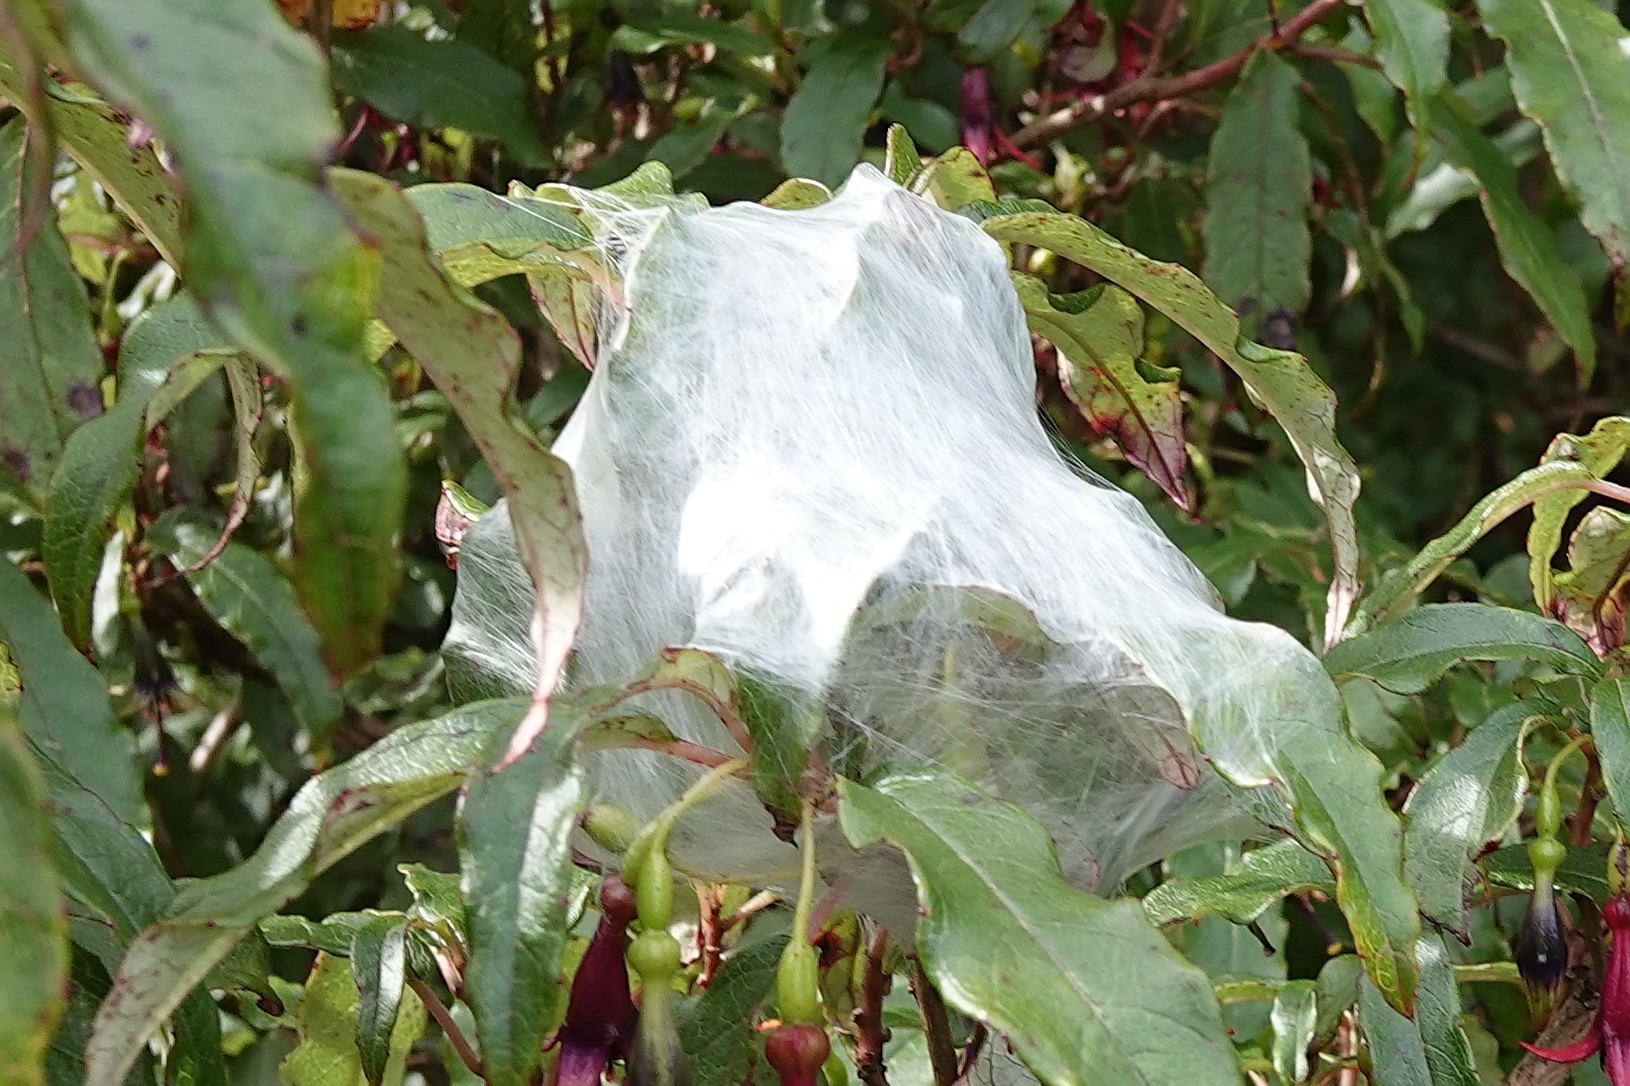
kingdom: Animalia
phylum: Arthropoda
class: Arachnida
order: Araneae
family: Pisauridae
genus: Dolomedes
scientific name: Dolomedes minor
